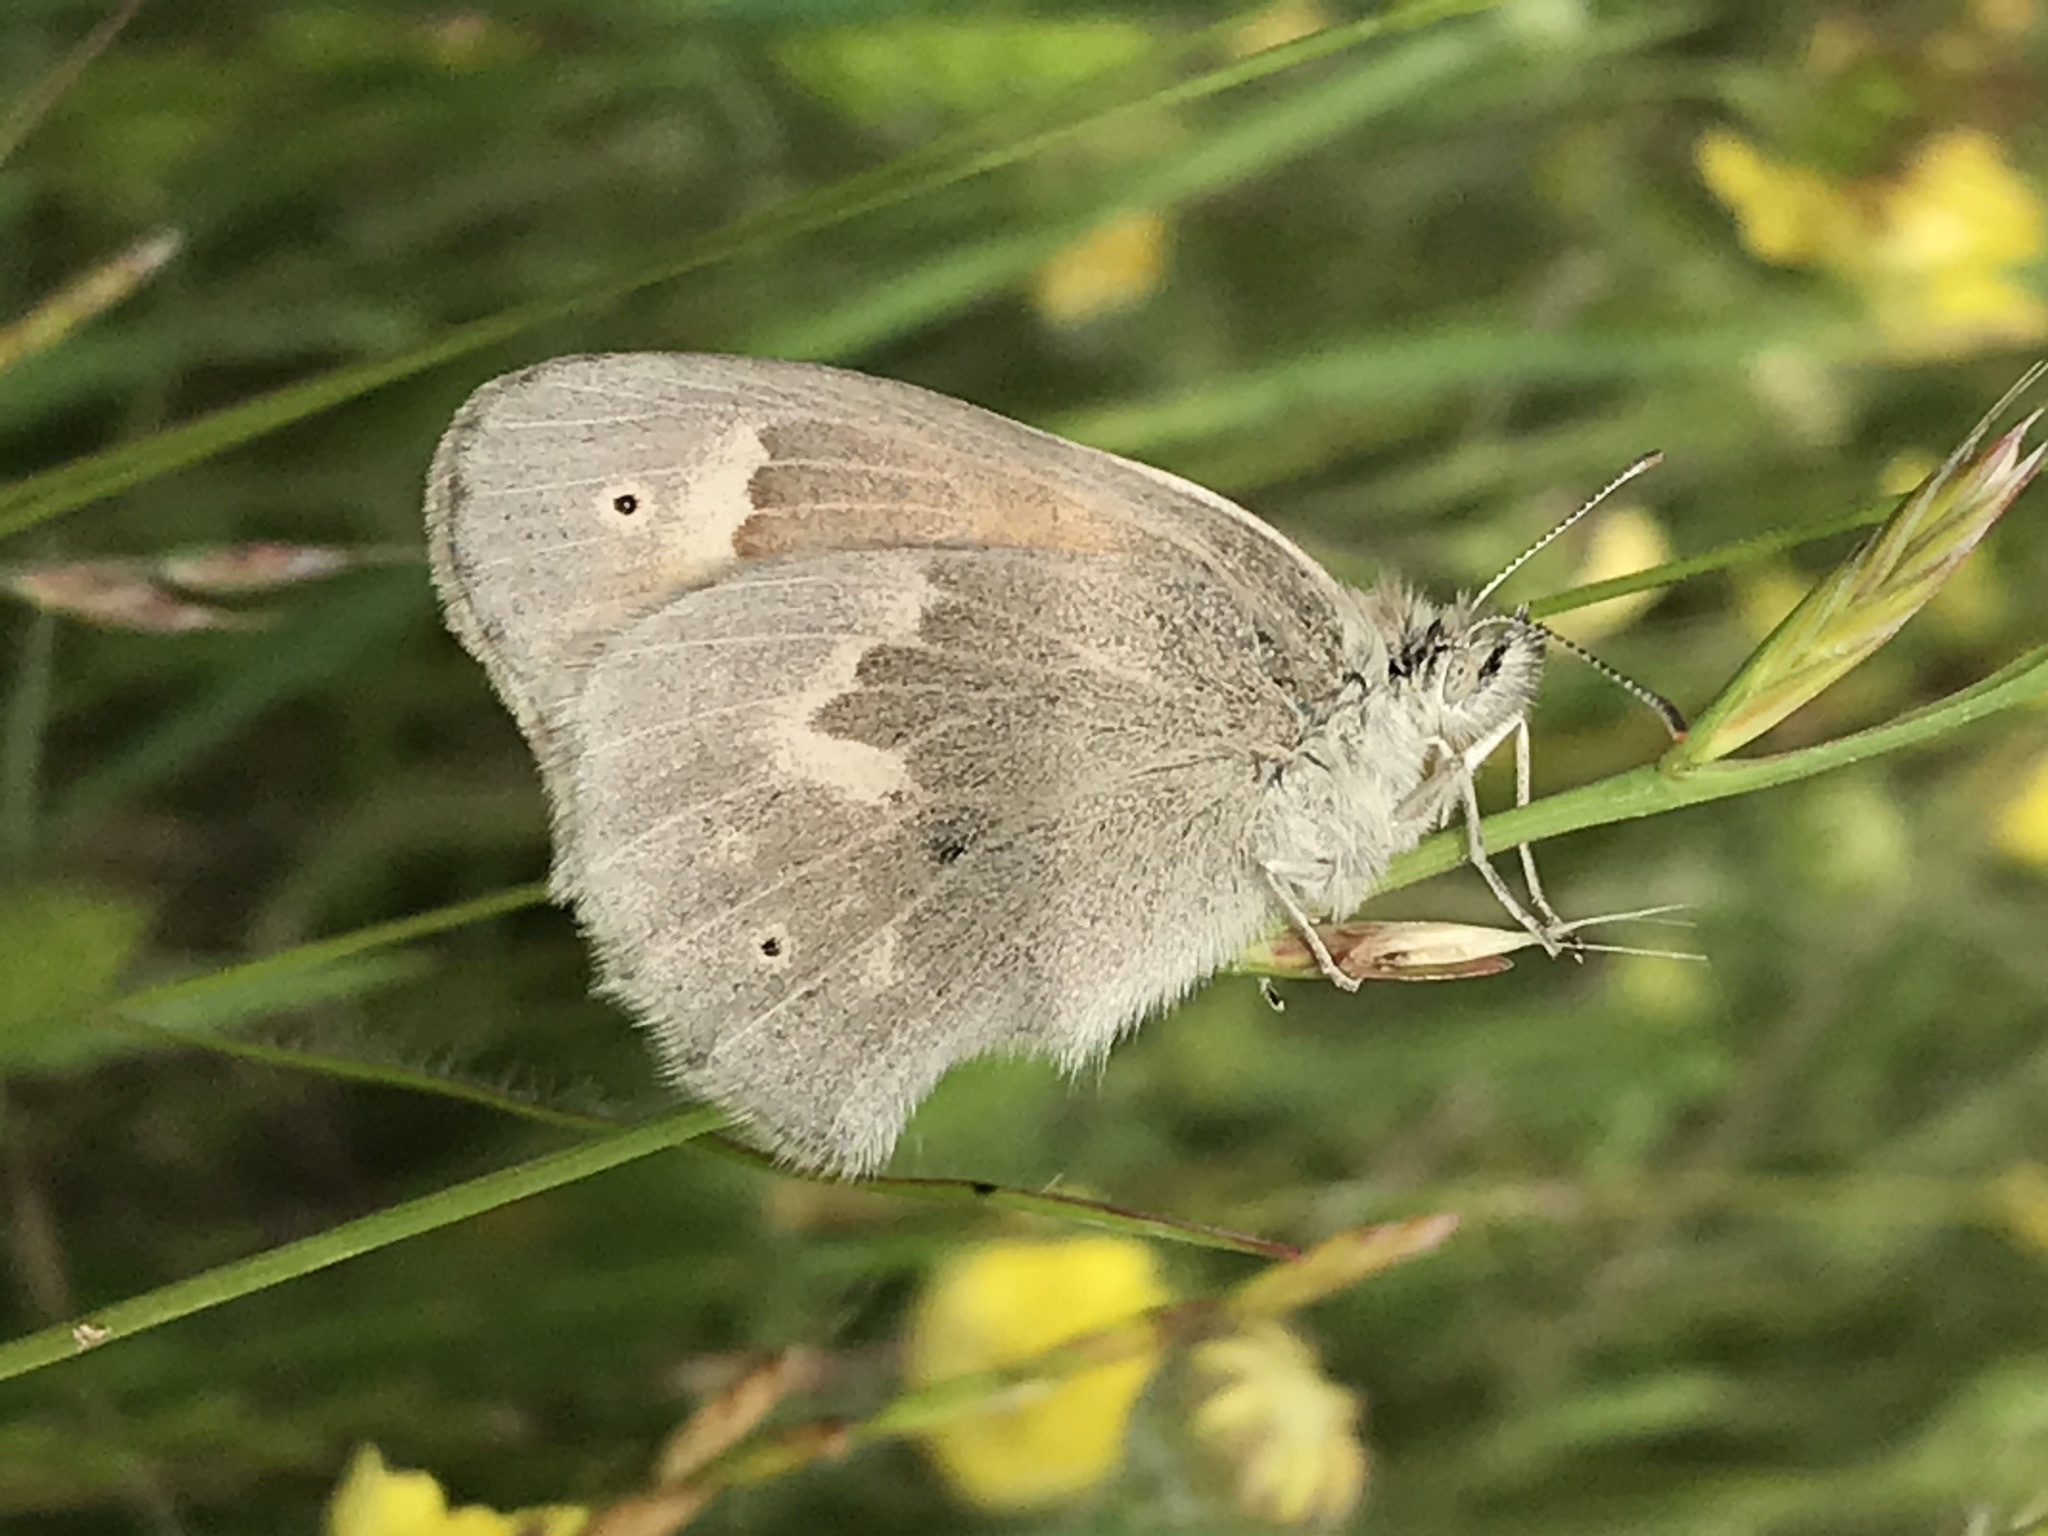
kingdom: Animalia
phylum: Arthropoda
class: Insecta
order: Lepidoptera
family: Nymphalidae
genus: Coenonympha
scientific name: Coenonympha california
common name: Common ringlet
